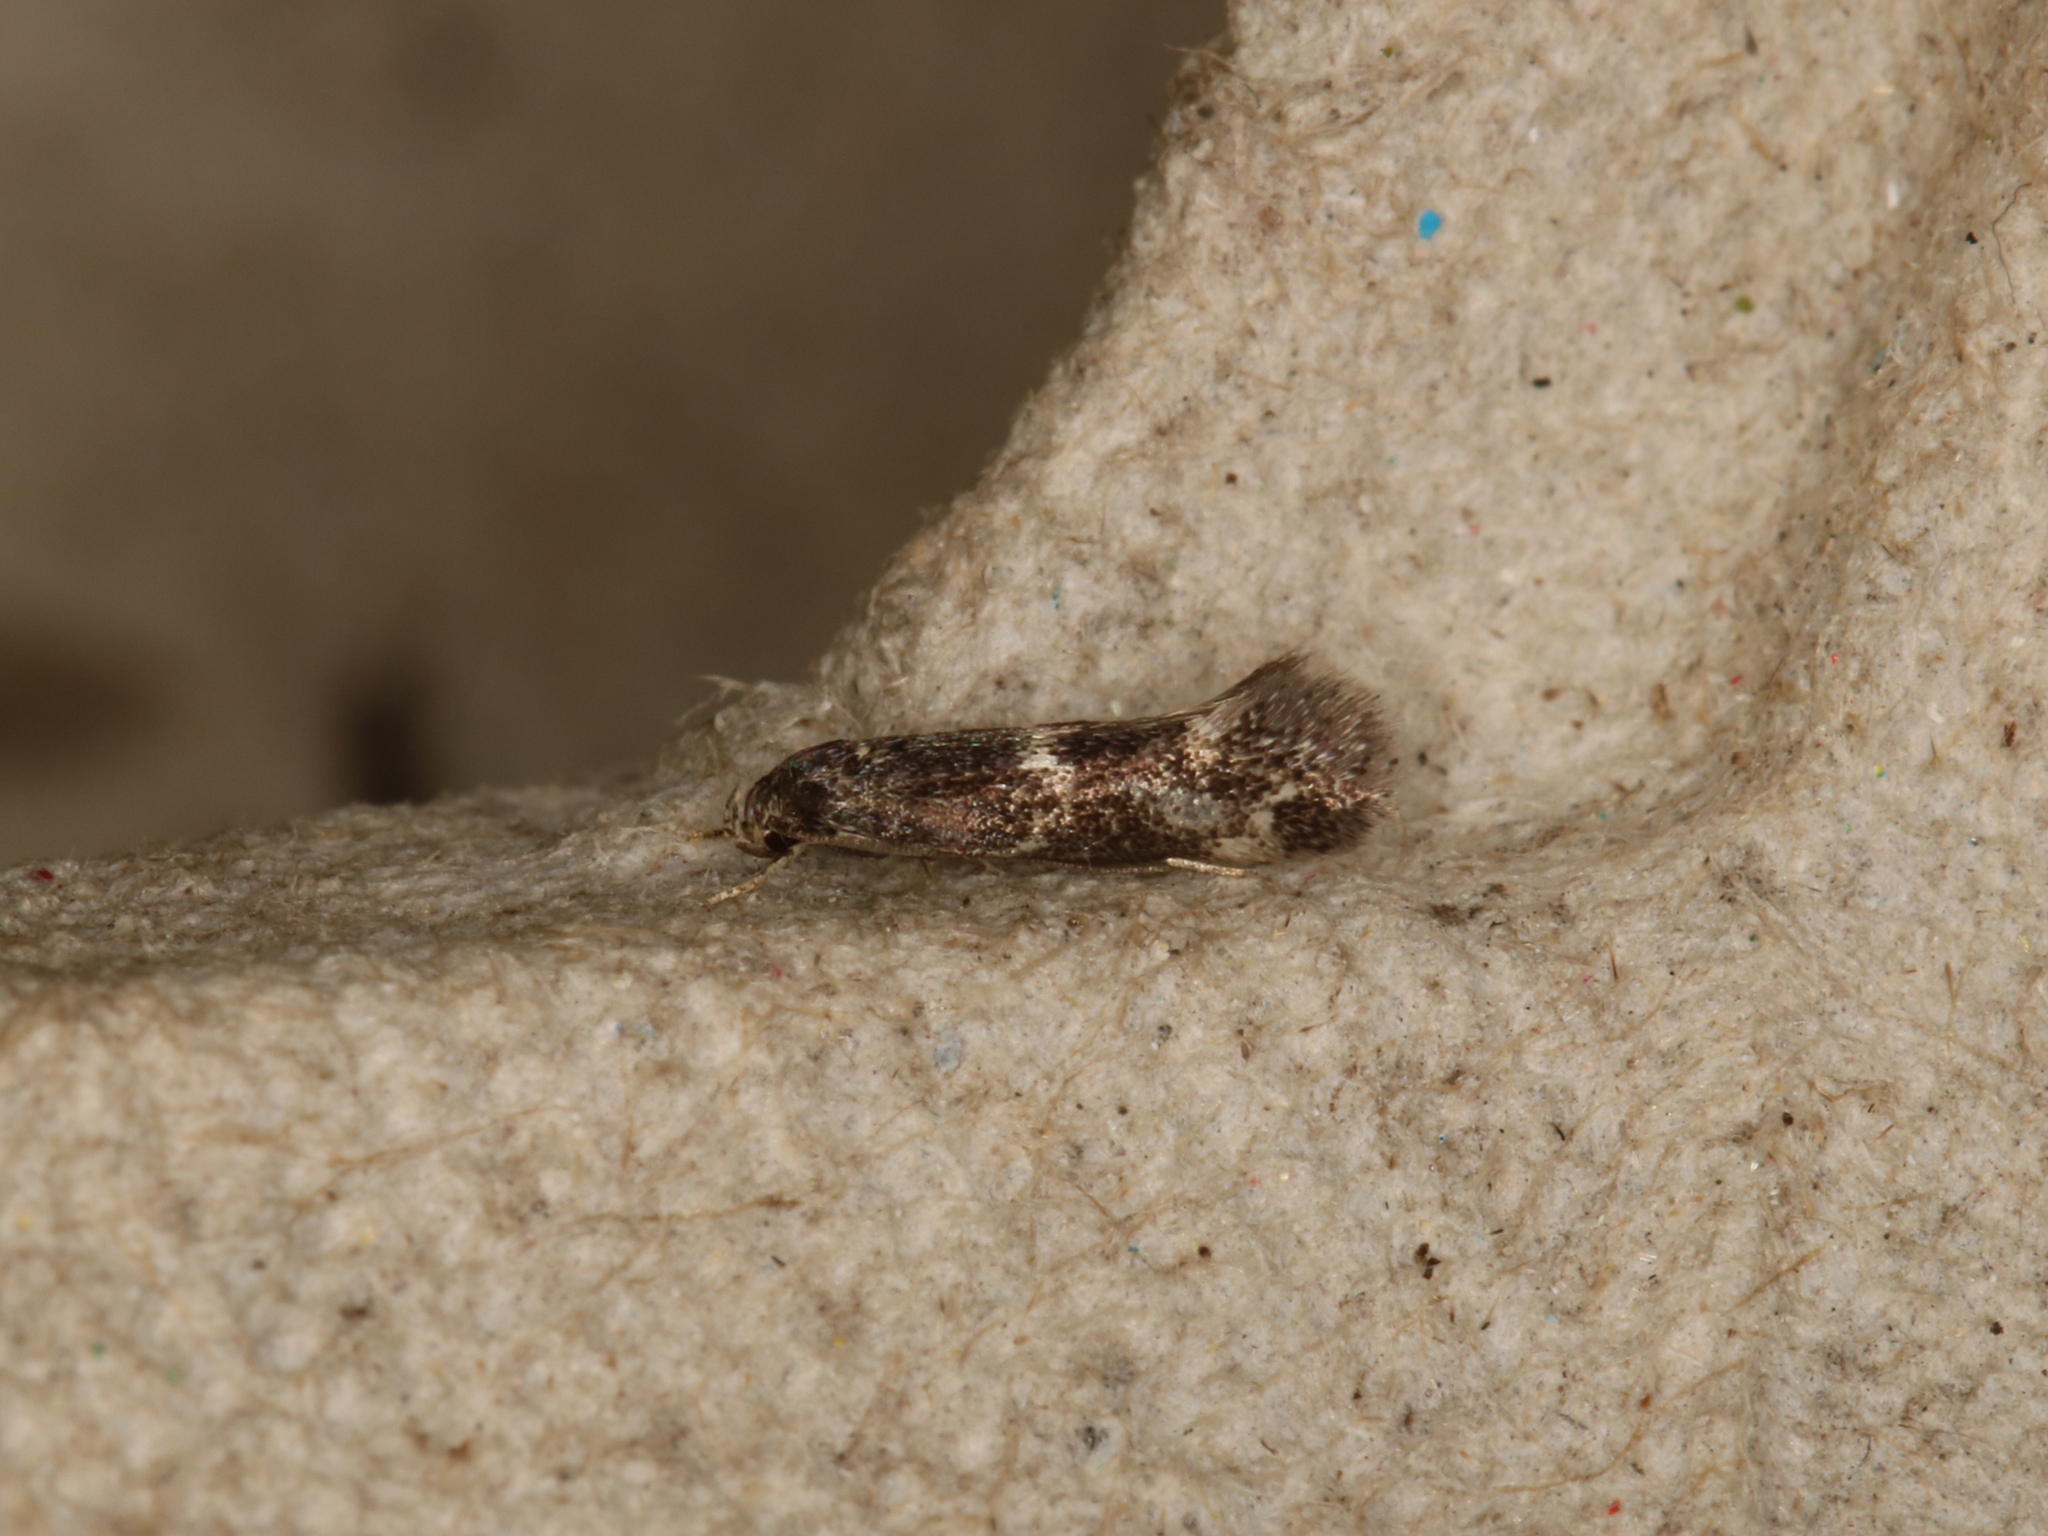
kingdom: Animalia
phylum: Arthropoda
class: Insecta
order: Trichoptera
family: Phryganeidae
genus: Trichostegia
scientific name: Trichostegia minor
